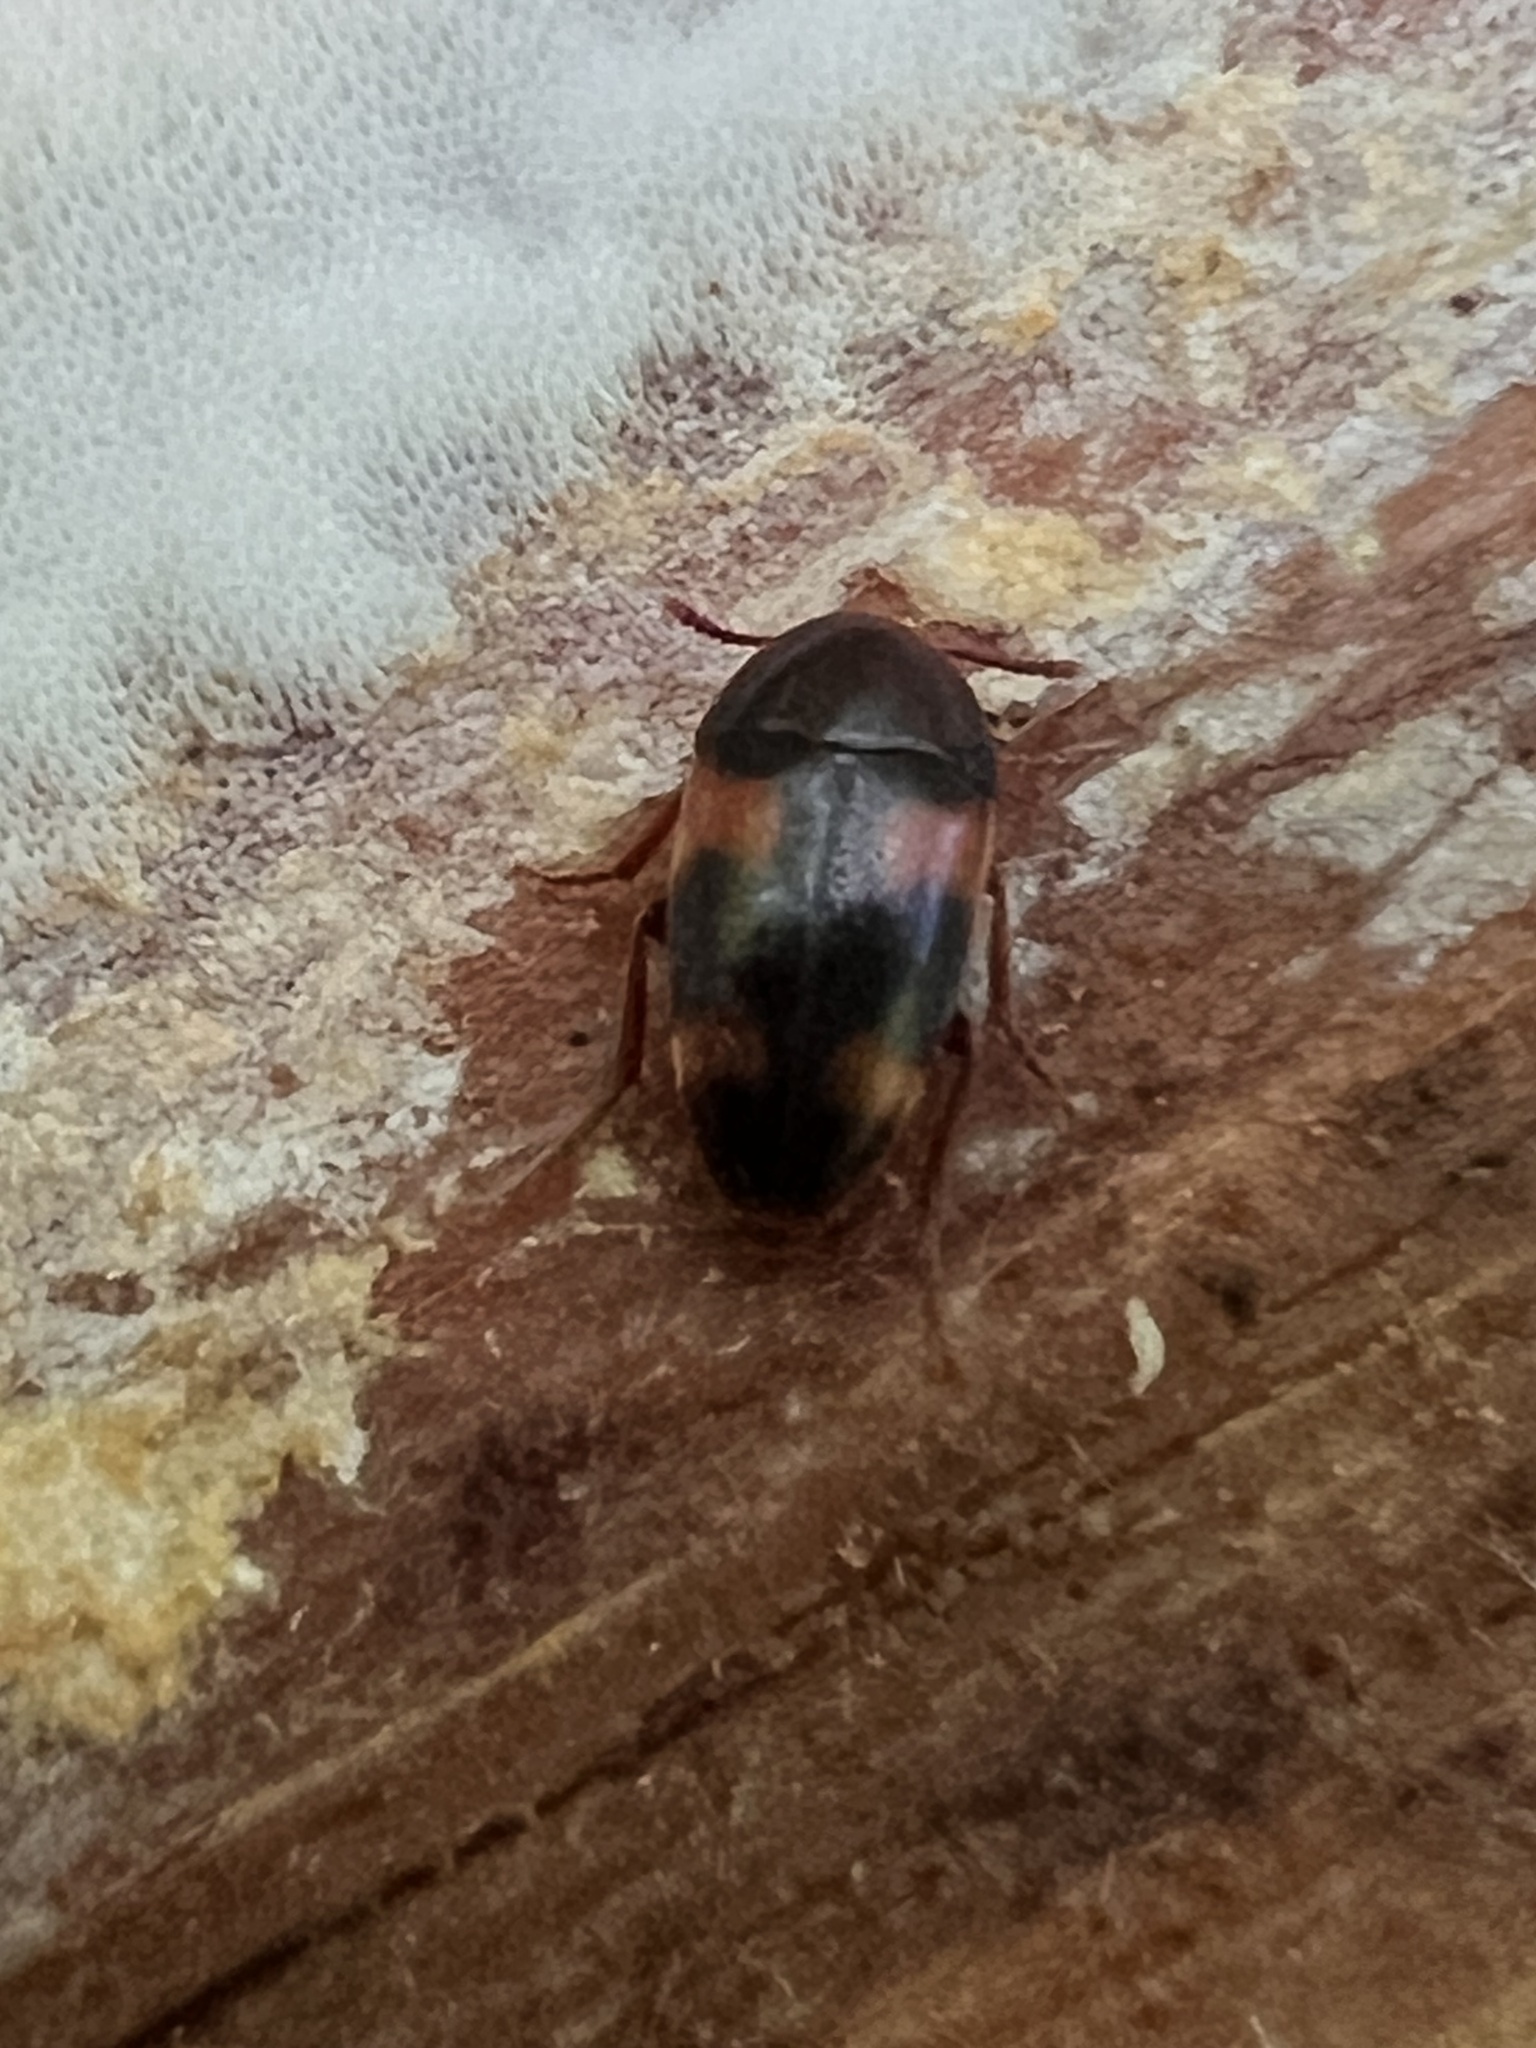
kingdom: Animalia
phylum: Arthropoda
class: Insecta
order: Coleoptera
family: Tetratomidae
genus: Holostrophus
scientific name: Holostrophus bifasciatus
